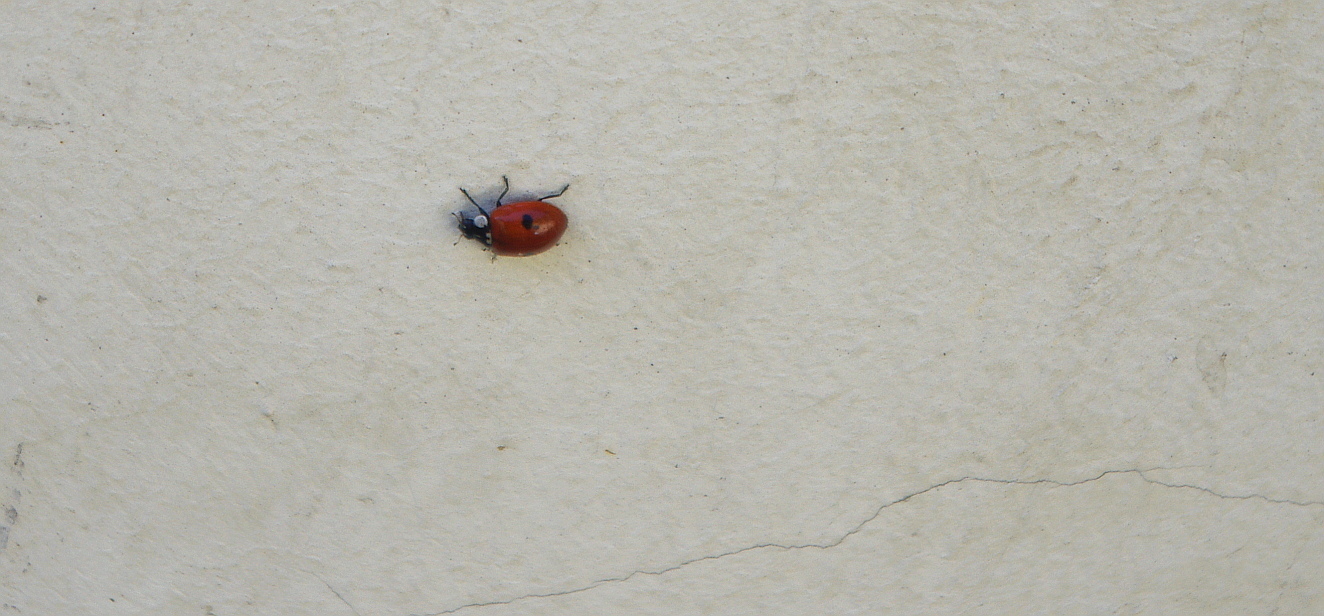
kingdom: Animalia
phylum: Arthropoda
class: Insecta
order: Coleoptera
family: Coccinellidae
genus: Adalia
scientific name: Adalia bipunctata
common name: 2-spot ladybird
